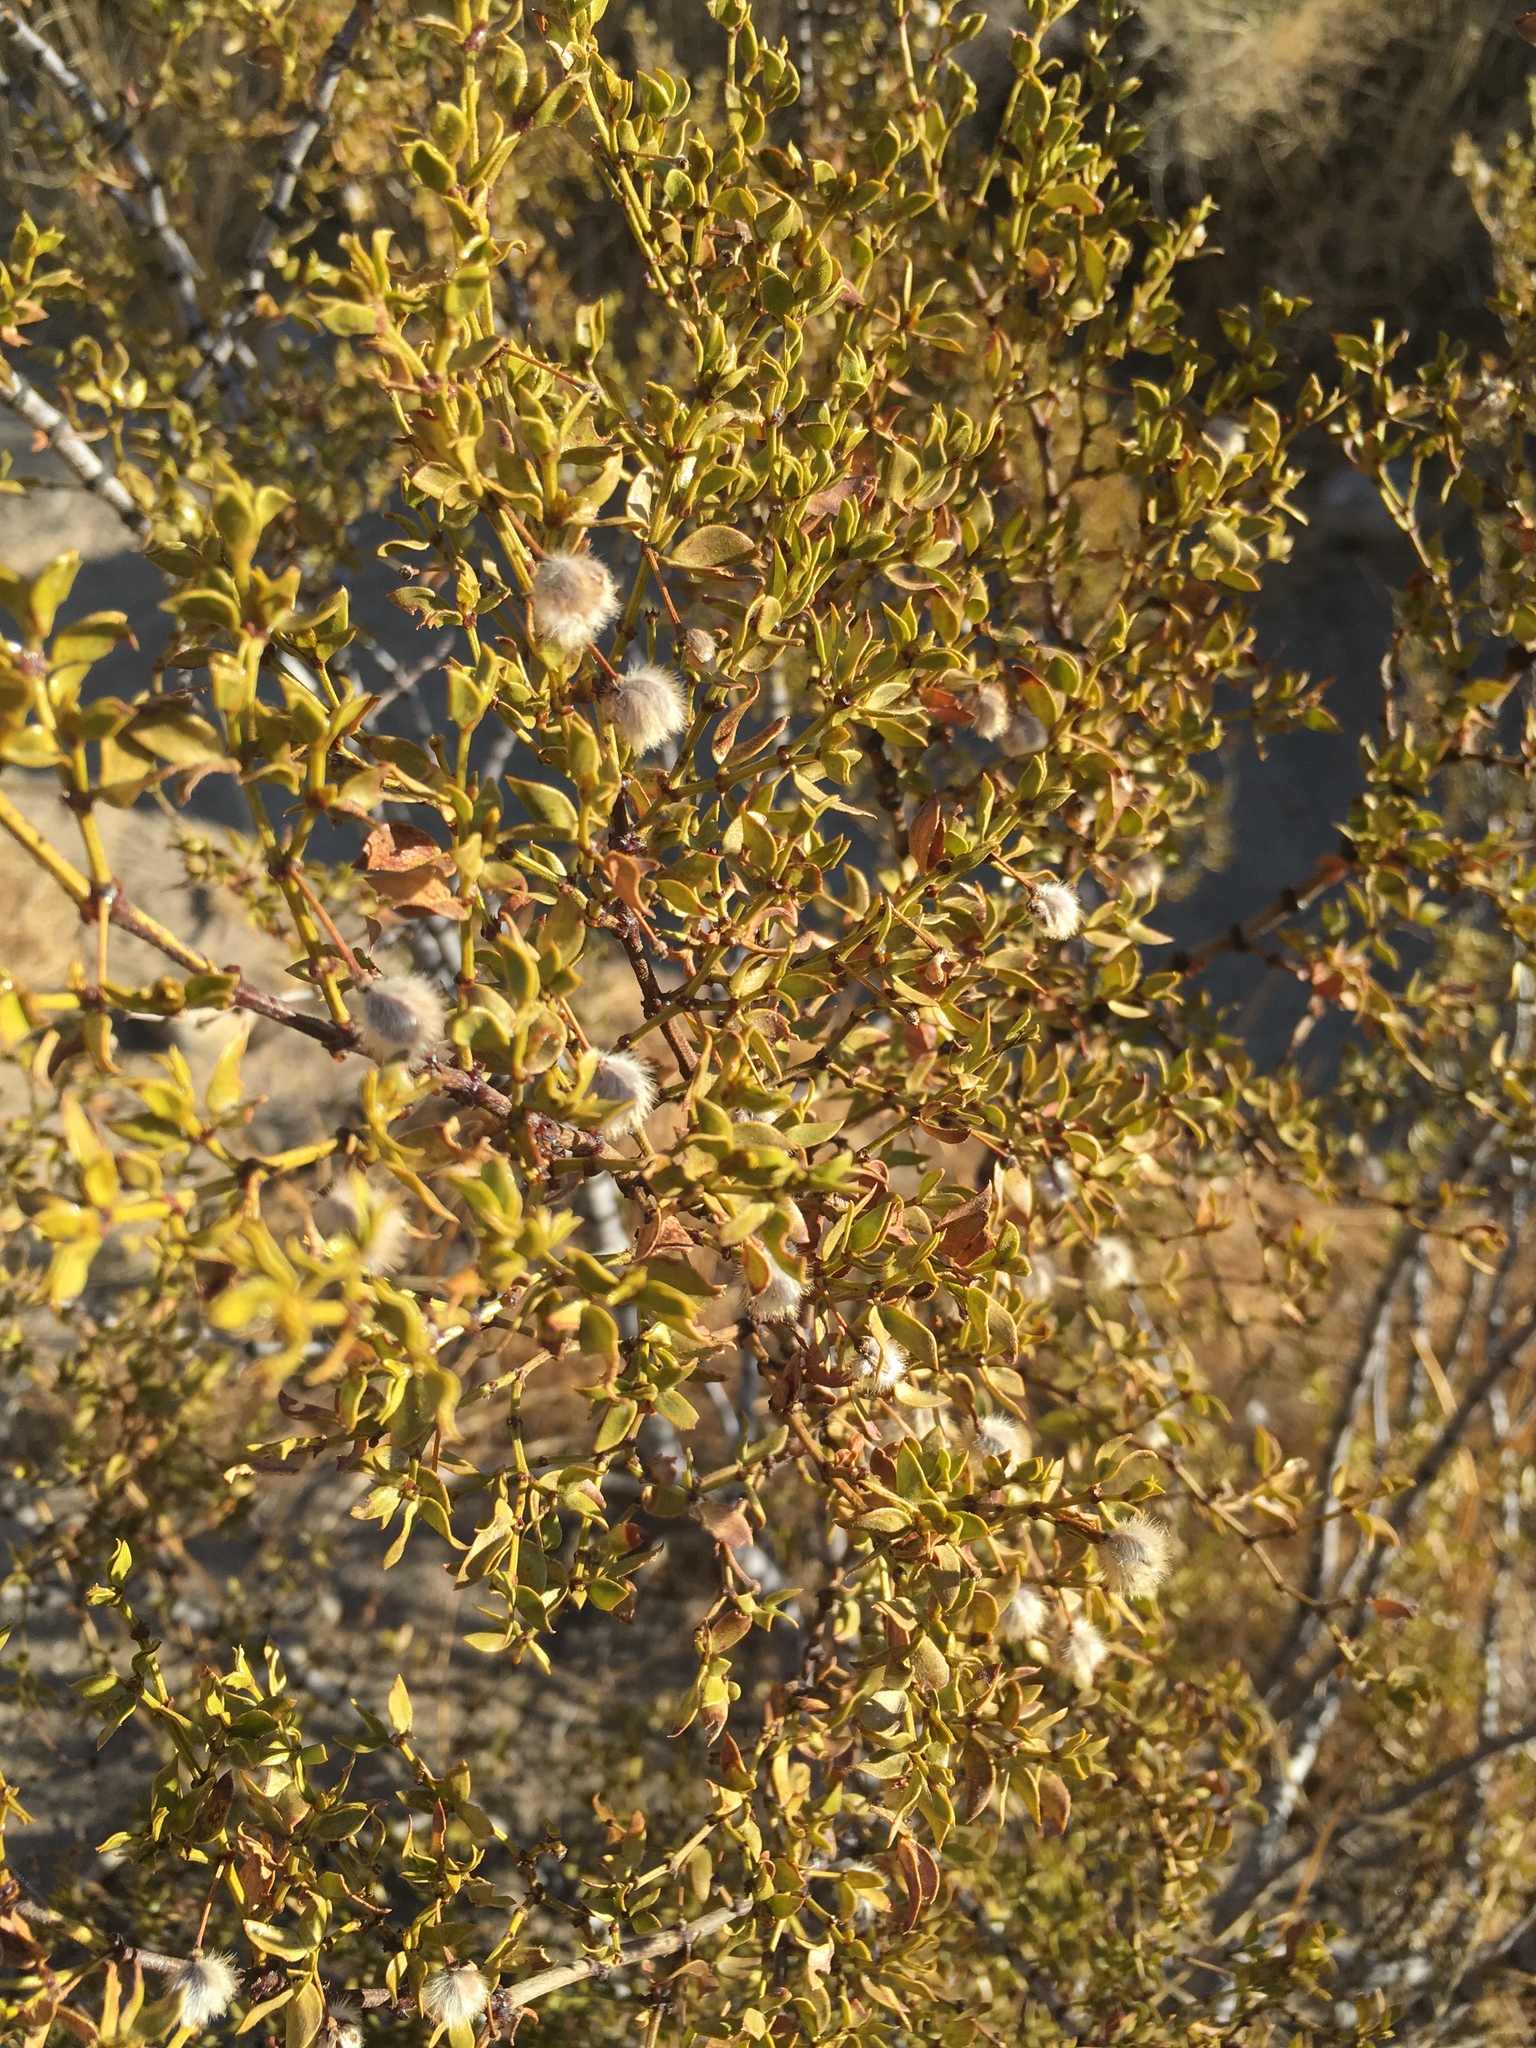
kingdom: Plantae
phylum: Tracheophyta
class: Magnoliopsida
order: Zygophyllales
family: Zygophyllaceae
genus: Larrea
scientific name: Larrea tridentata
